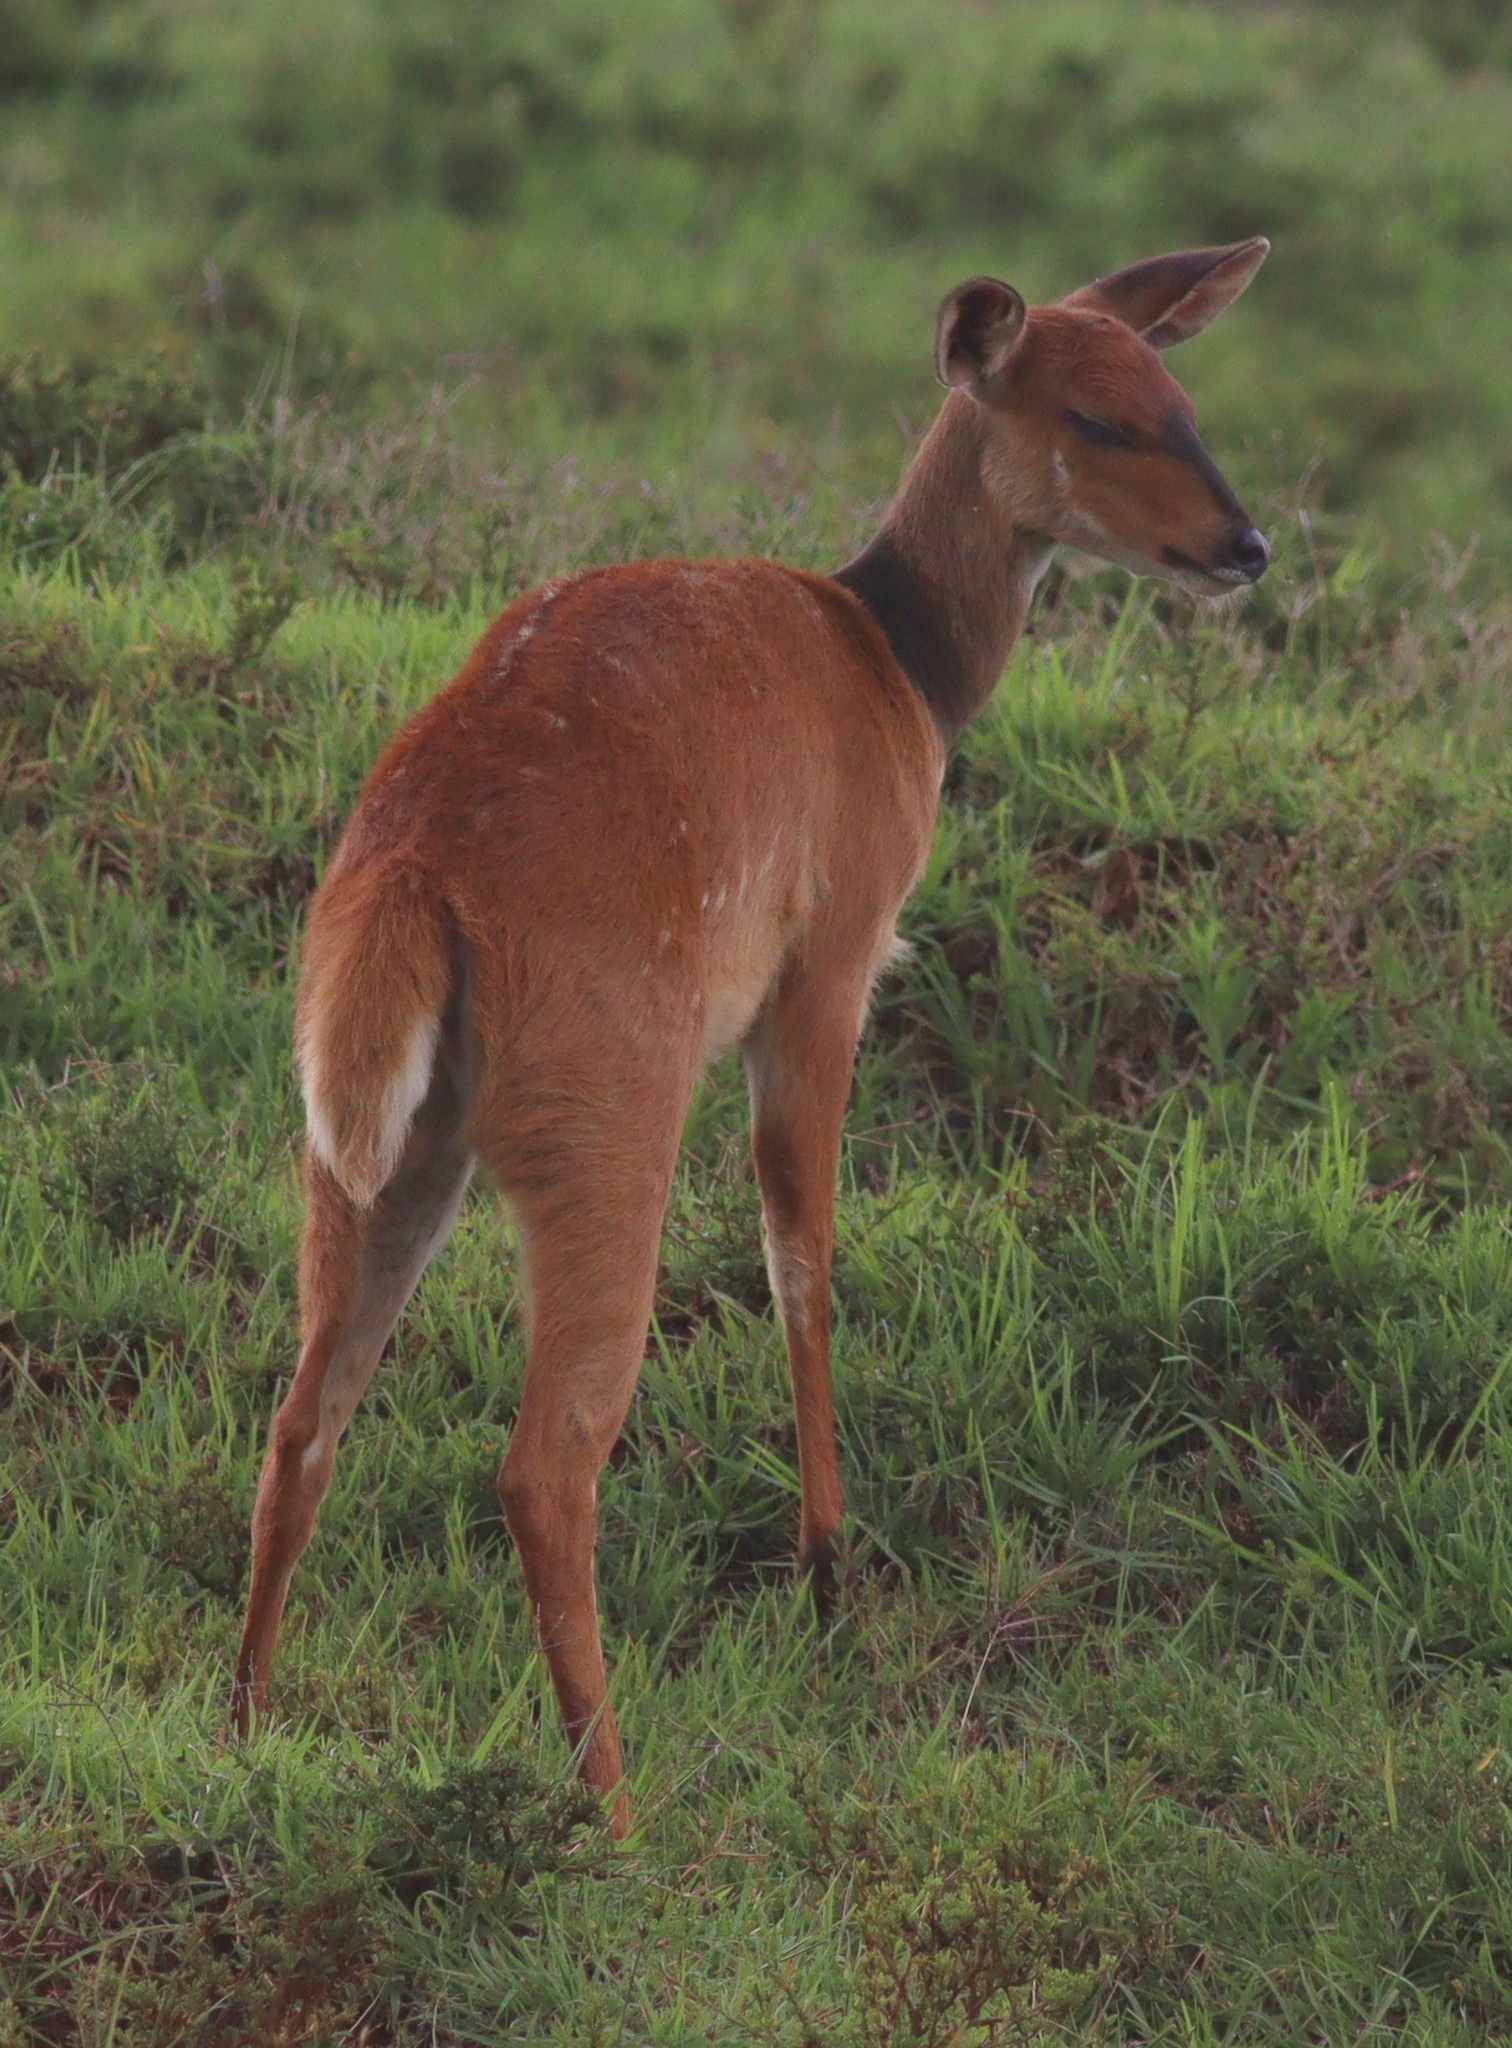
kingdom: Animalia
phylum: Chordata
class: Mammalia
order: Artiodactyla
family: Bovidae
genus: Tragelaphus
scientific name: Tragelaphus scriptus
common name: Bushbuck
